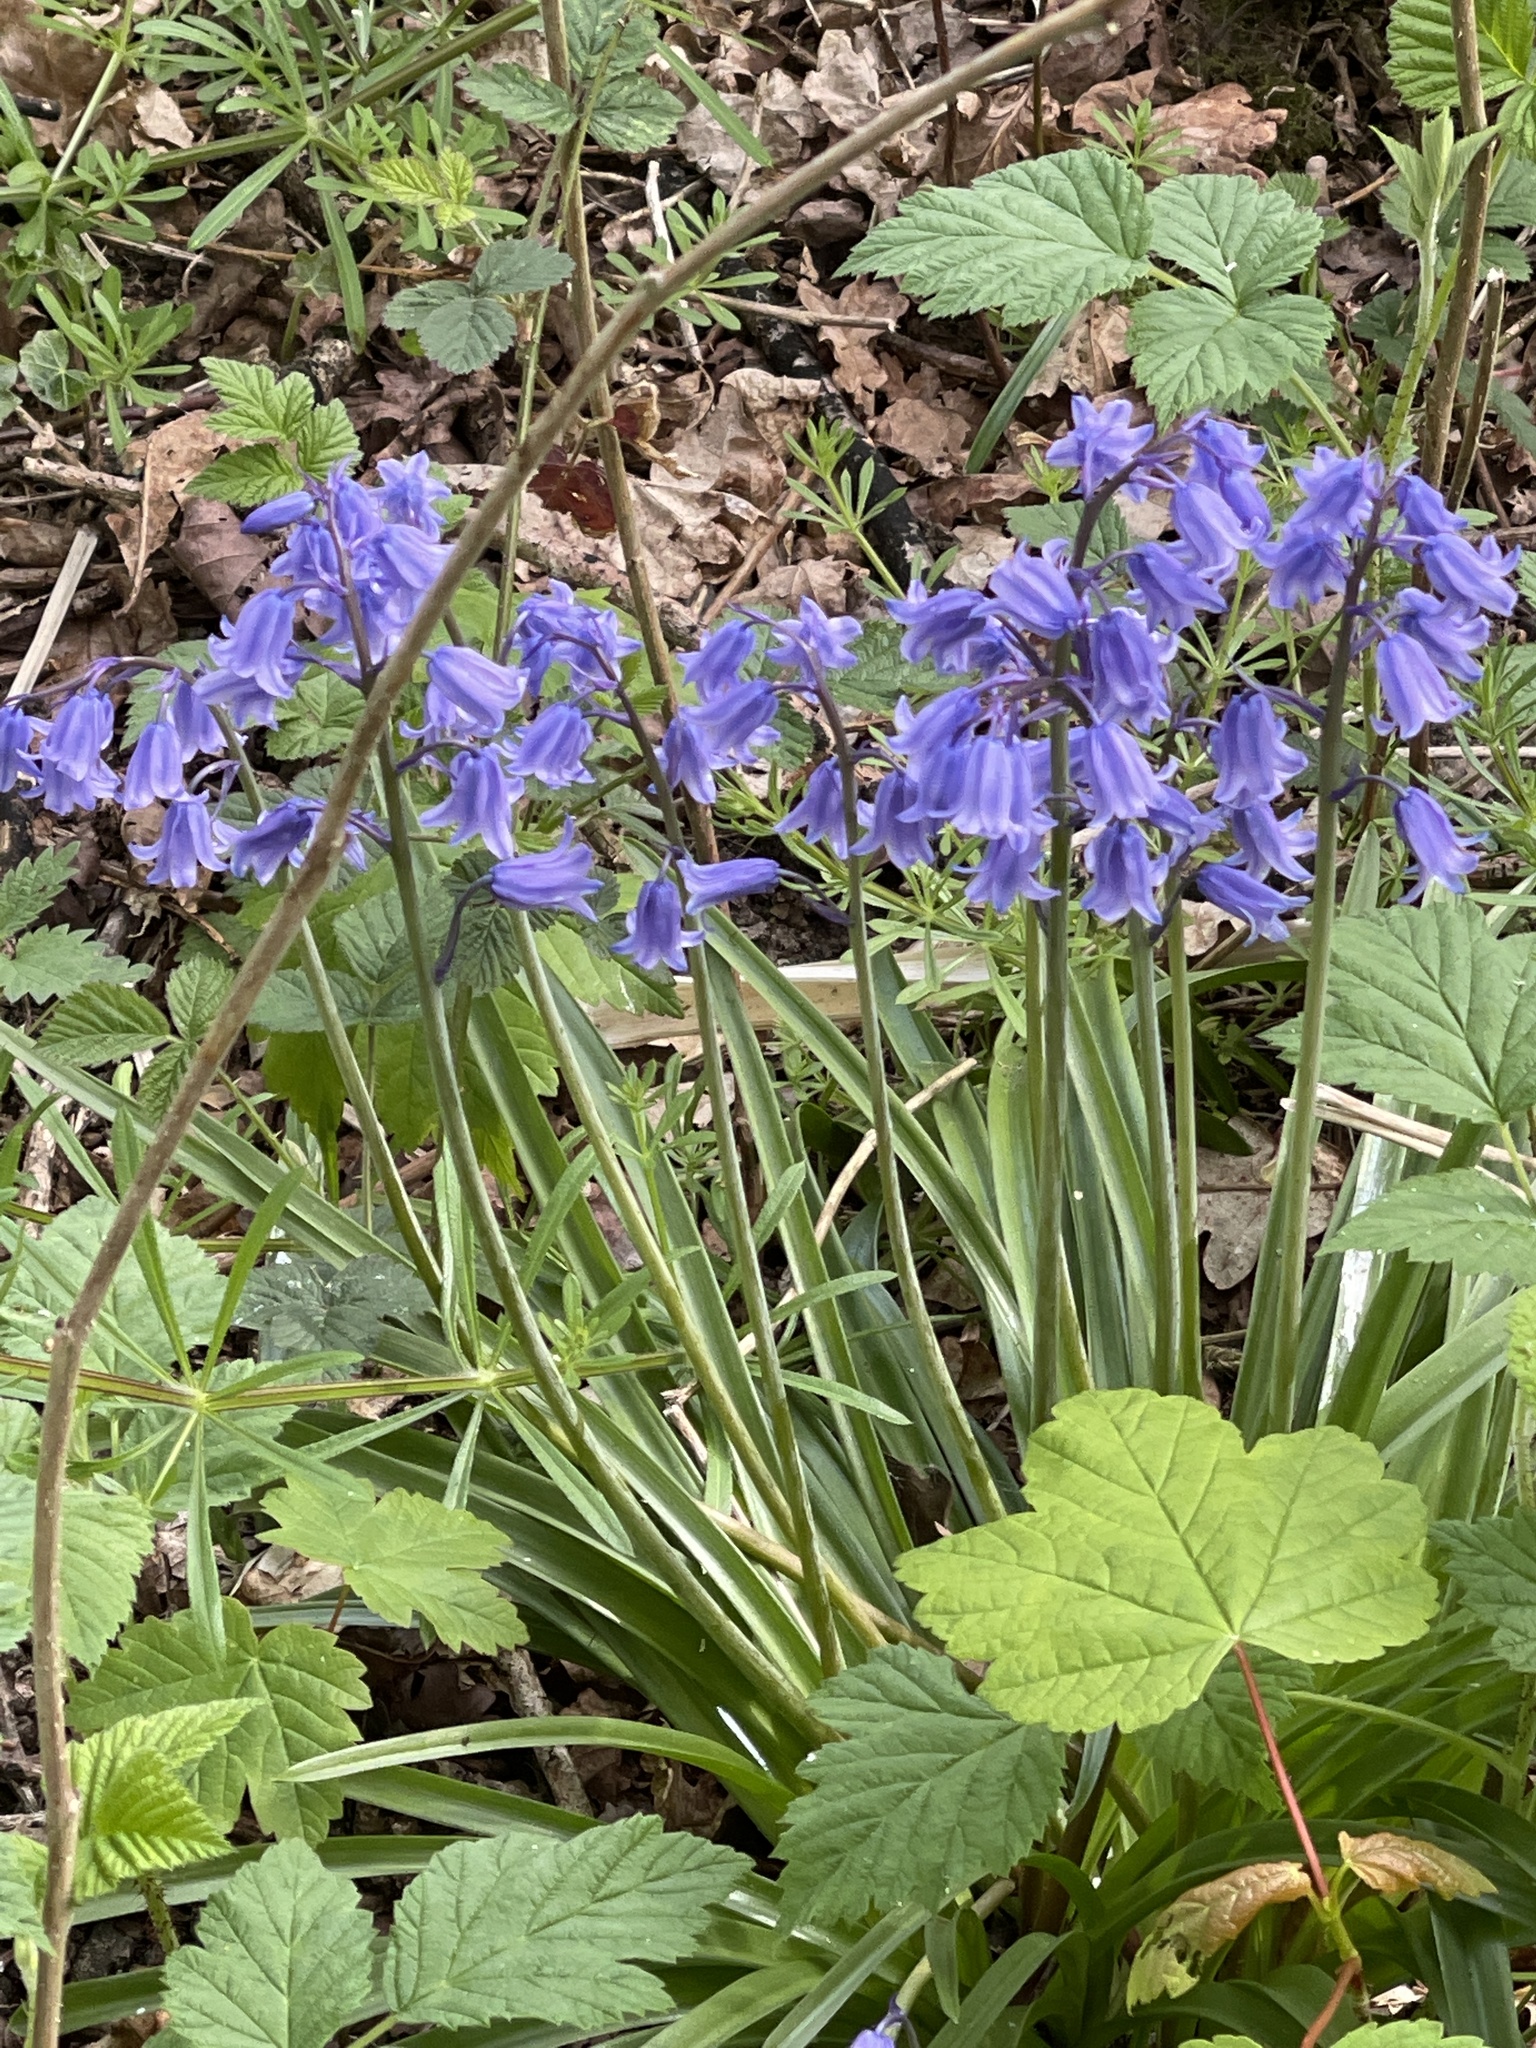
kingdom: Plantae
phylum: Tracheophyta
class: Liliopsida
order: Asparagales
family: Asparagaceae
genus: Hyacinthoides
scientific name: Hyacinthoides massartiana
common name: Hyacinthoides
